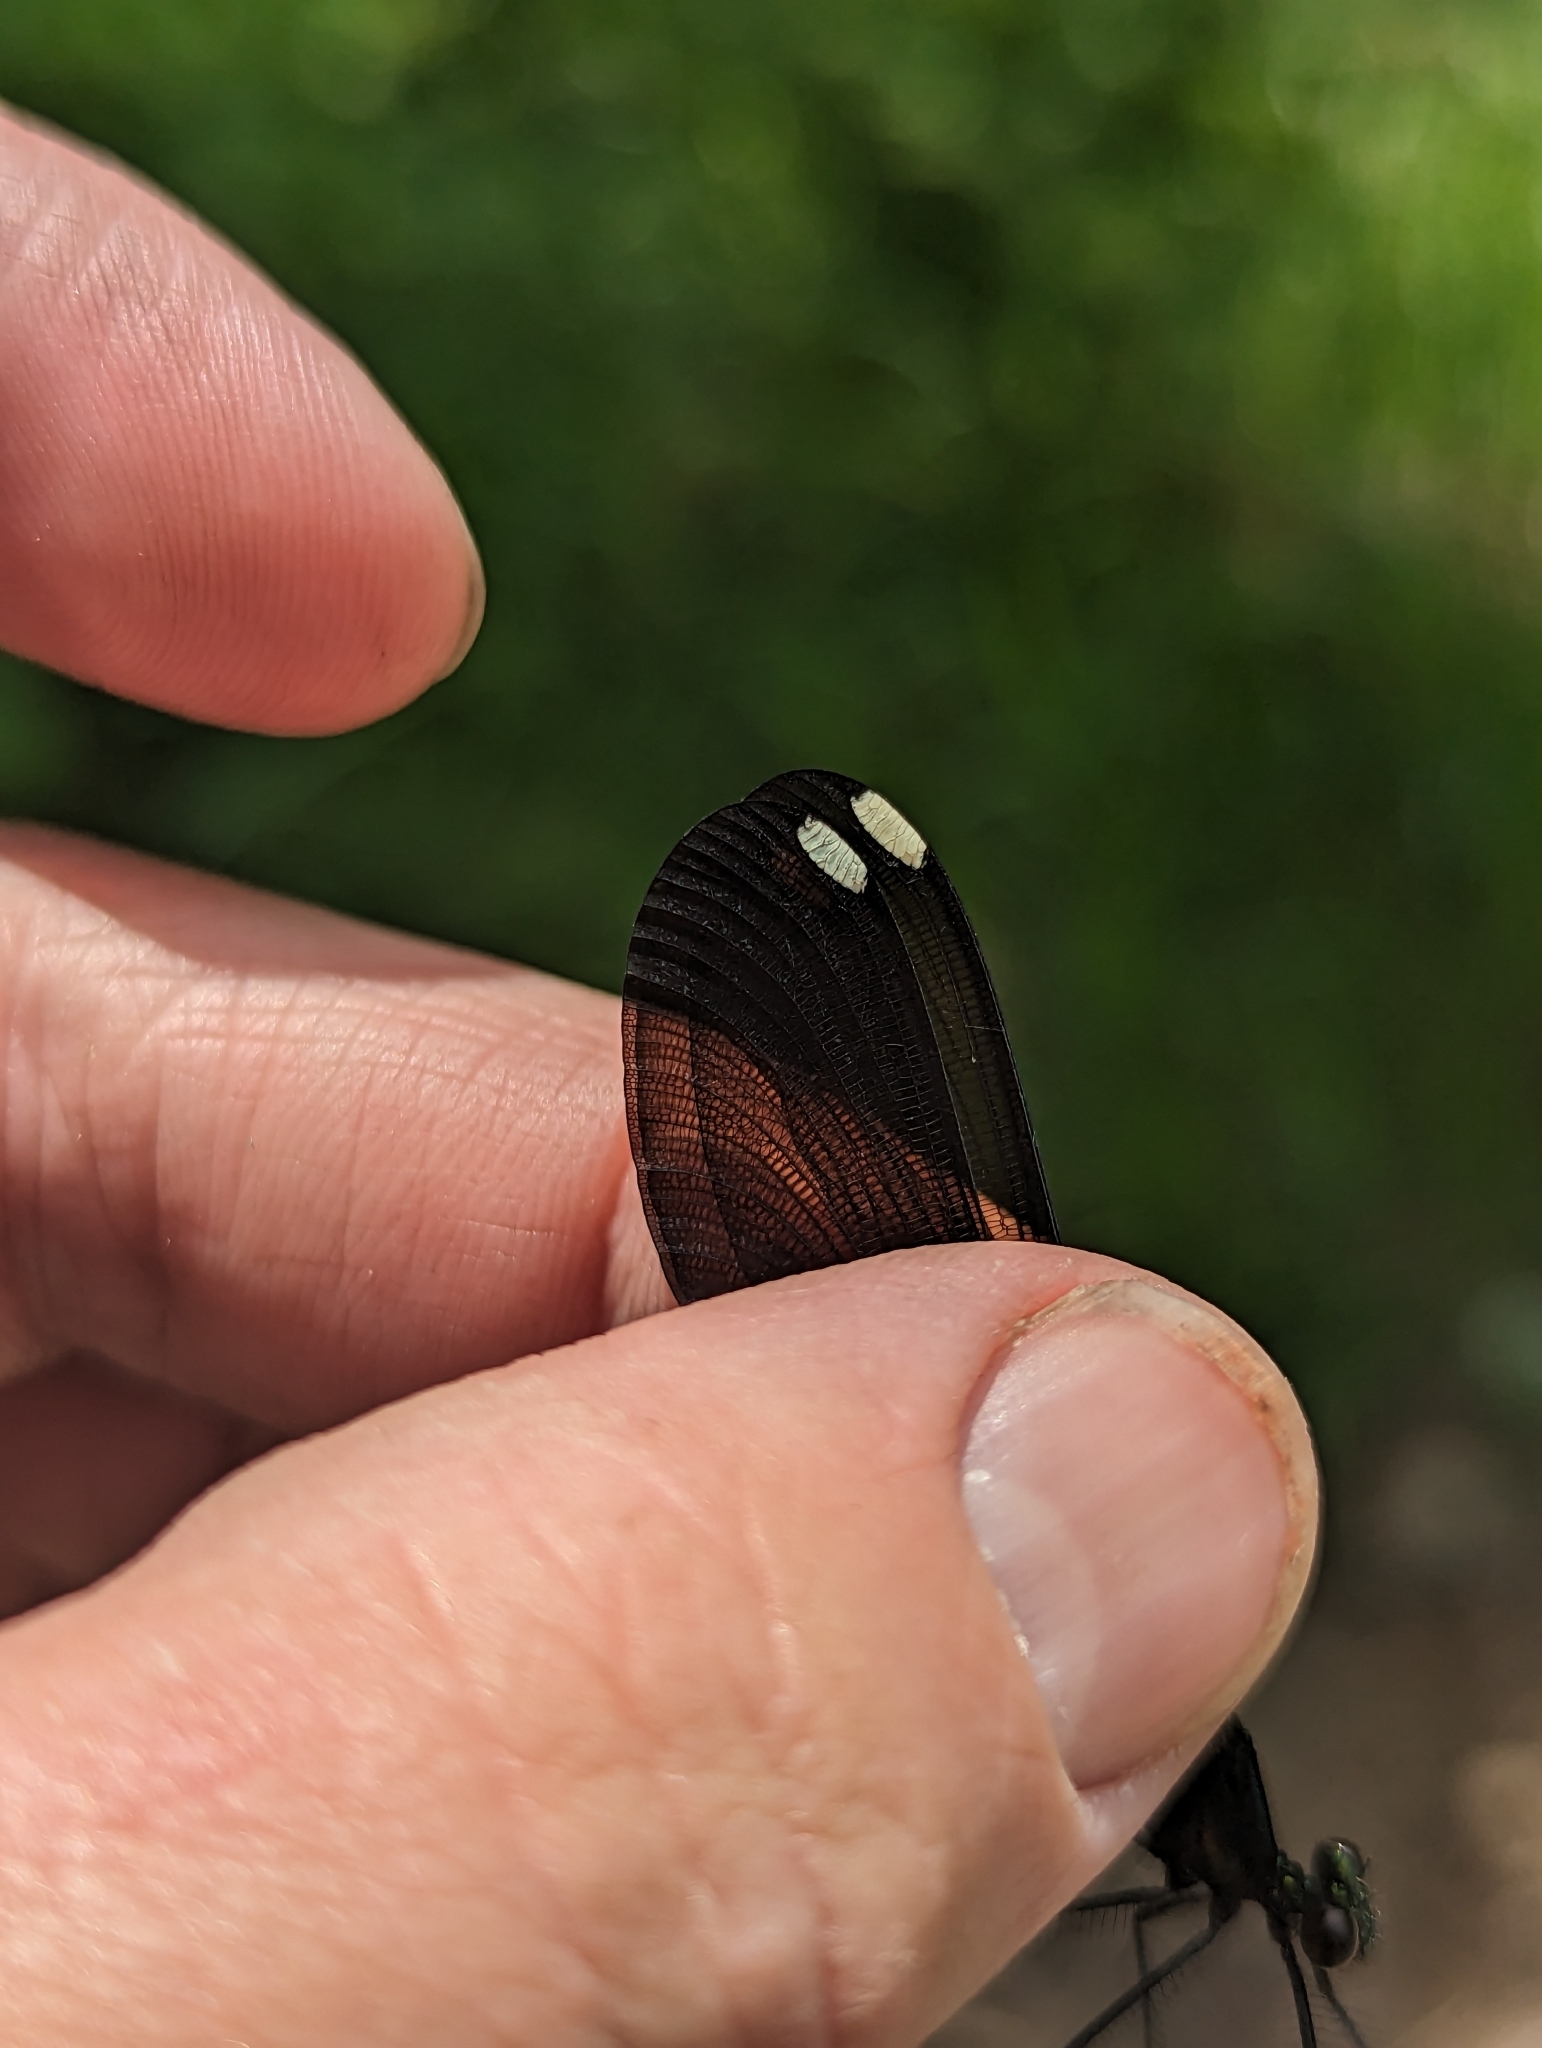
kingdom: Animalia
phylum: Arthropoda
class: Insecta
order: Odonata
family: Calopterygidae
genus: Calopteryx
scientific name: Calopteryx maculata
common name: Ebony jewelwing
